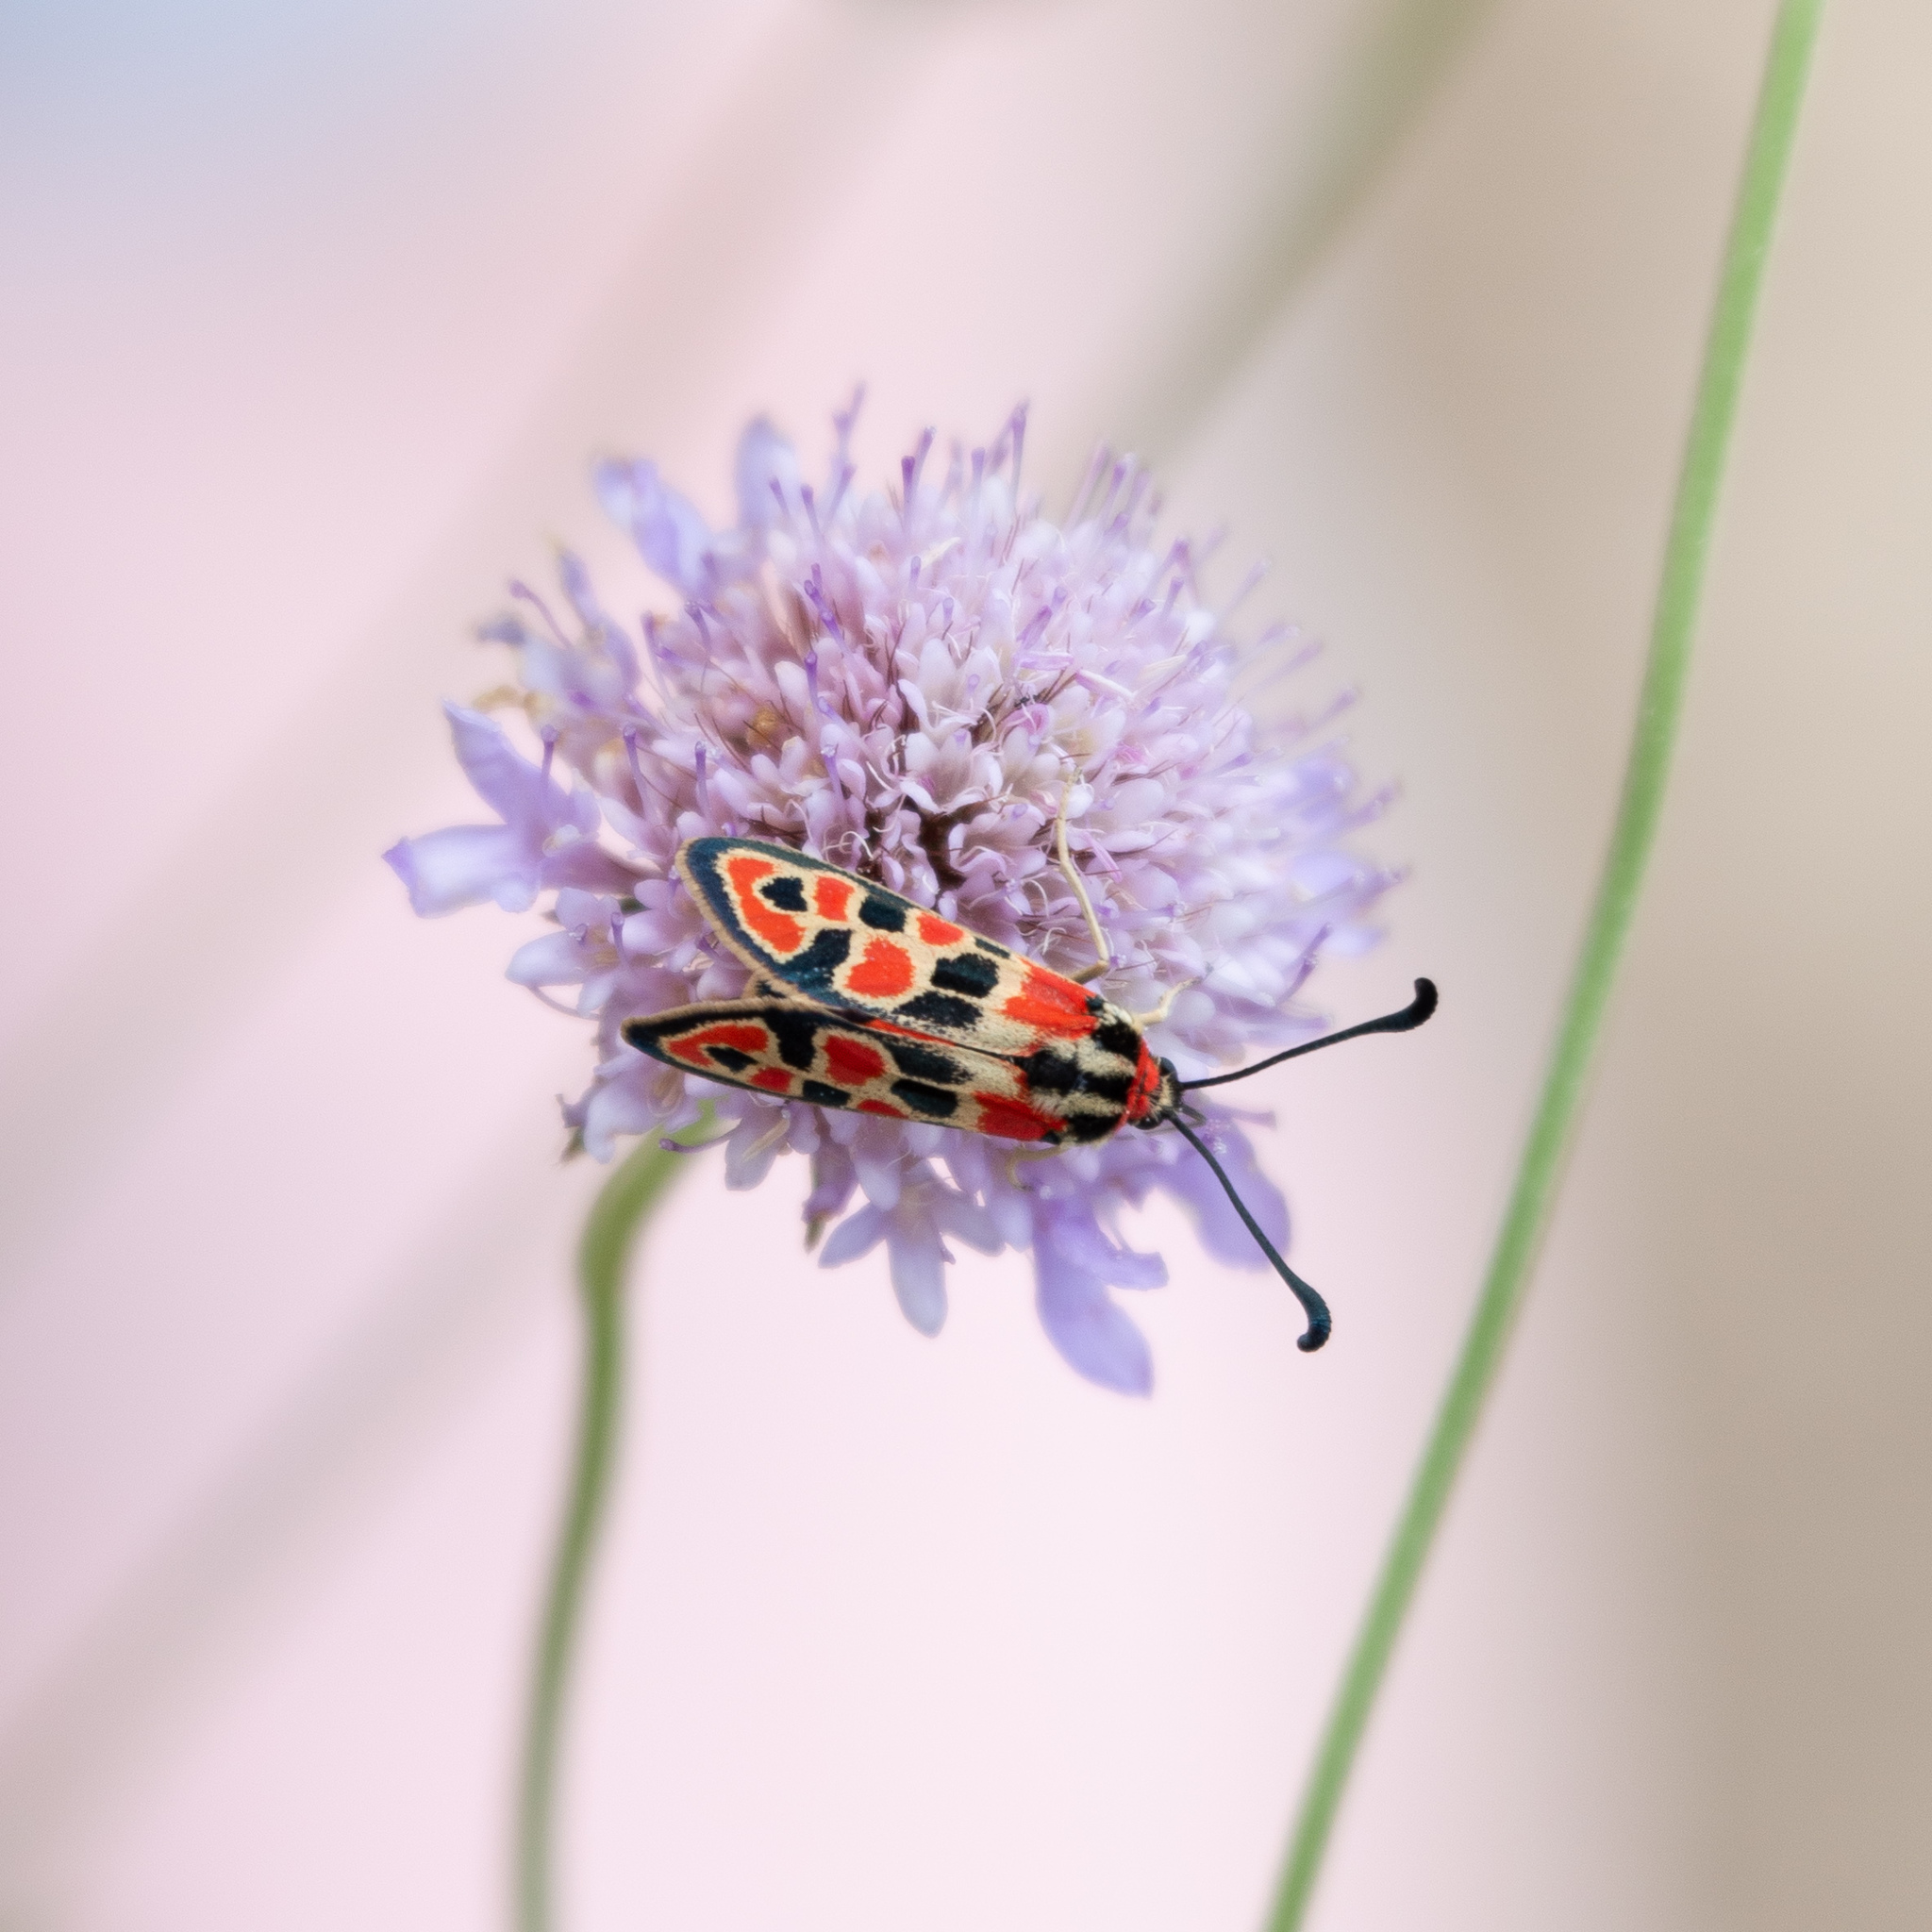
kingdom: Animalia
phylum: Arthropoda
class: Insecta
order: Lepidoptera
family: Zygaenidae
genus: Zygaena
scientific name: Zygaena fausta
